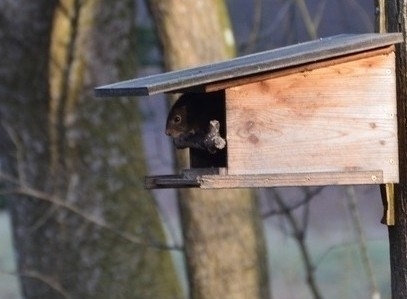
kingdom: Animalia
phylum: Chordata
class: Mammalia
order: Rodentia
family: Sciuridae
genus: Sciurus
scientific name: Sciurus vulgaris
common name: Eurasian red squirrel
